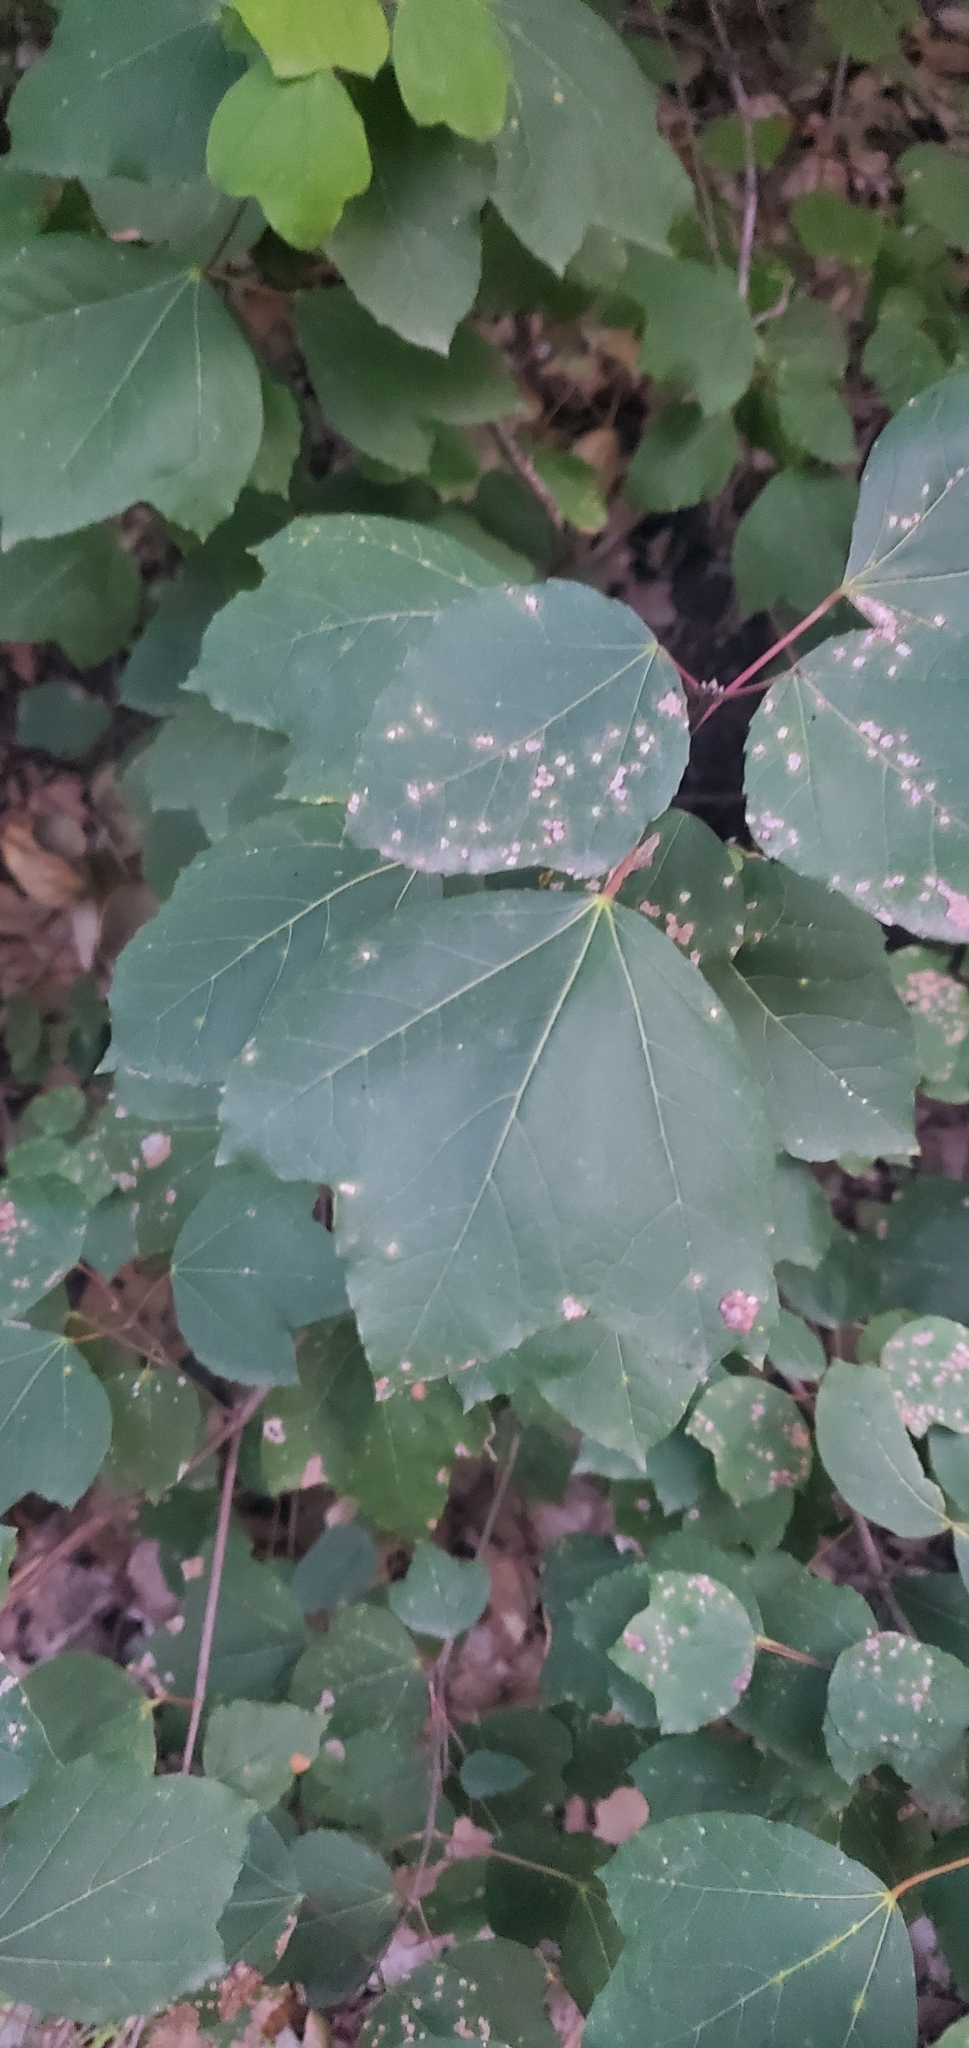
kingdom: Plantae
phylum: Tracheophyta
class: Magnoliopsida
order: Sapindales
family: Sapindaceae
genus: Acer
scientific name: Acer obtusifolium
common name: Cyprus maple
